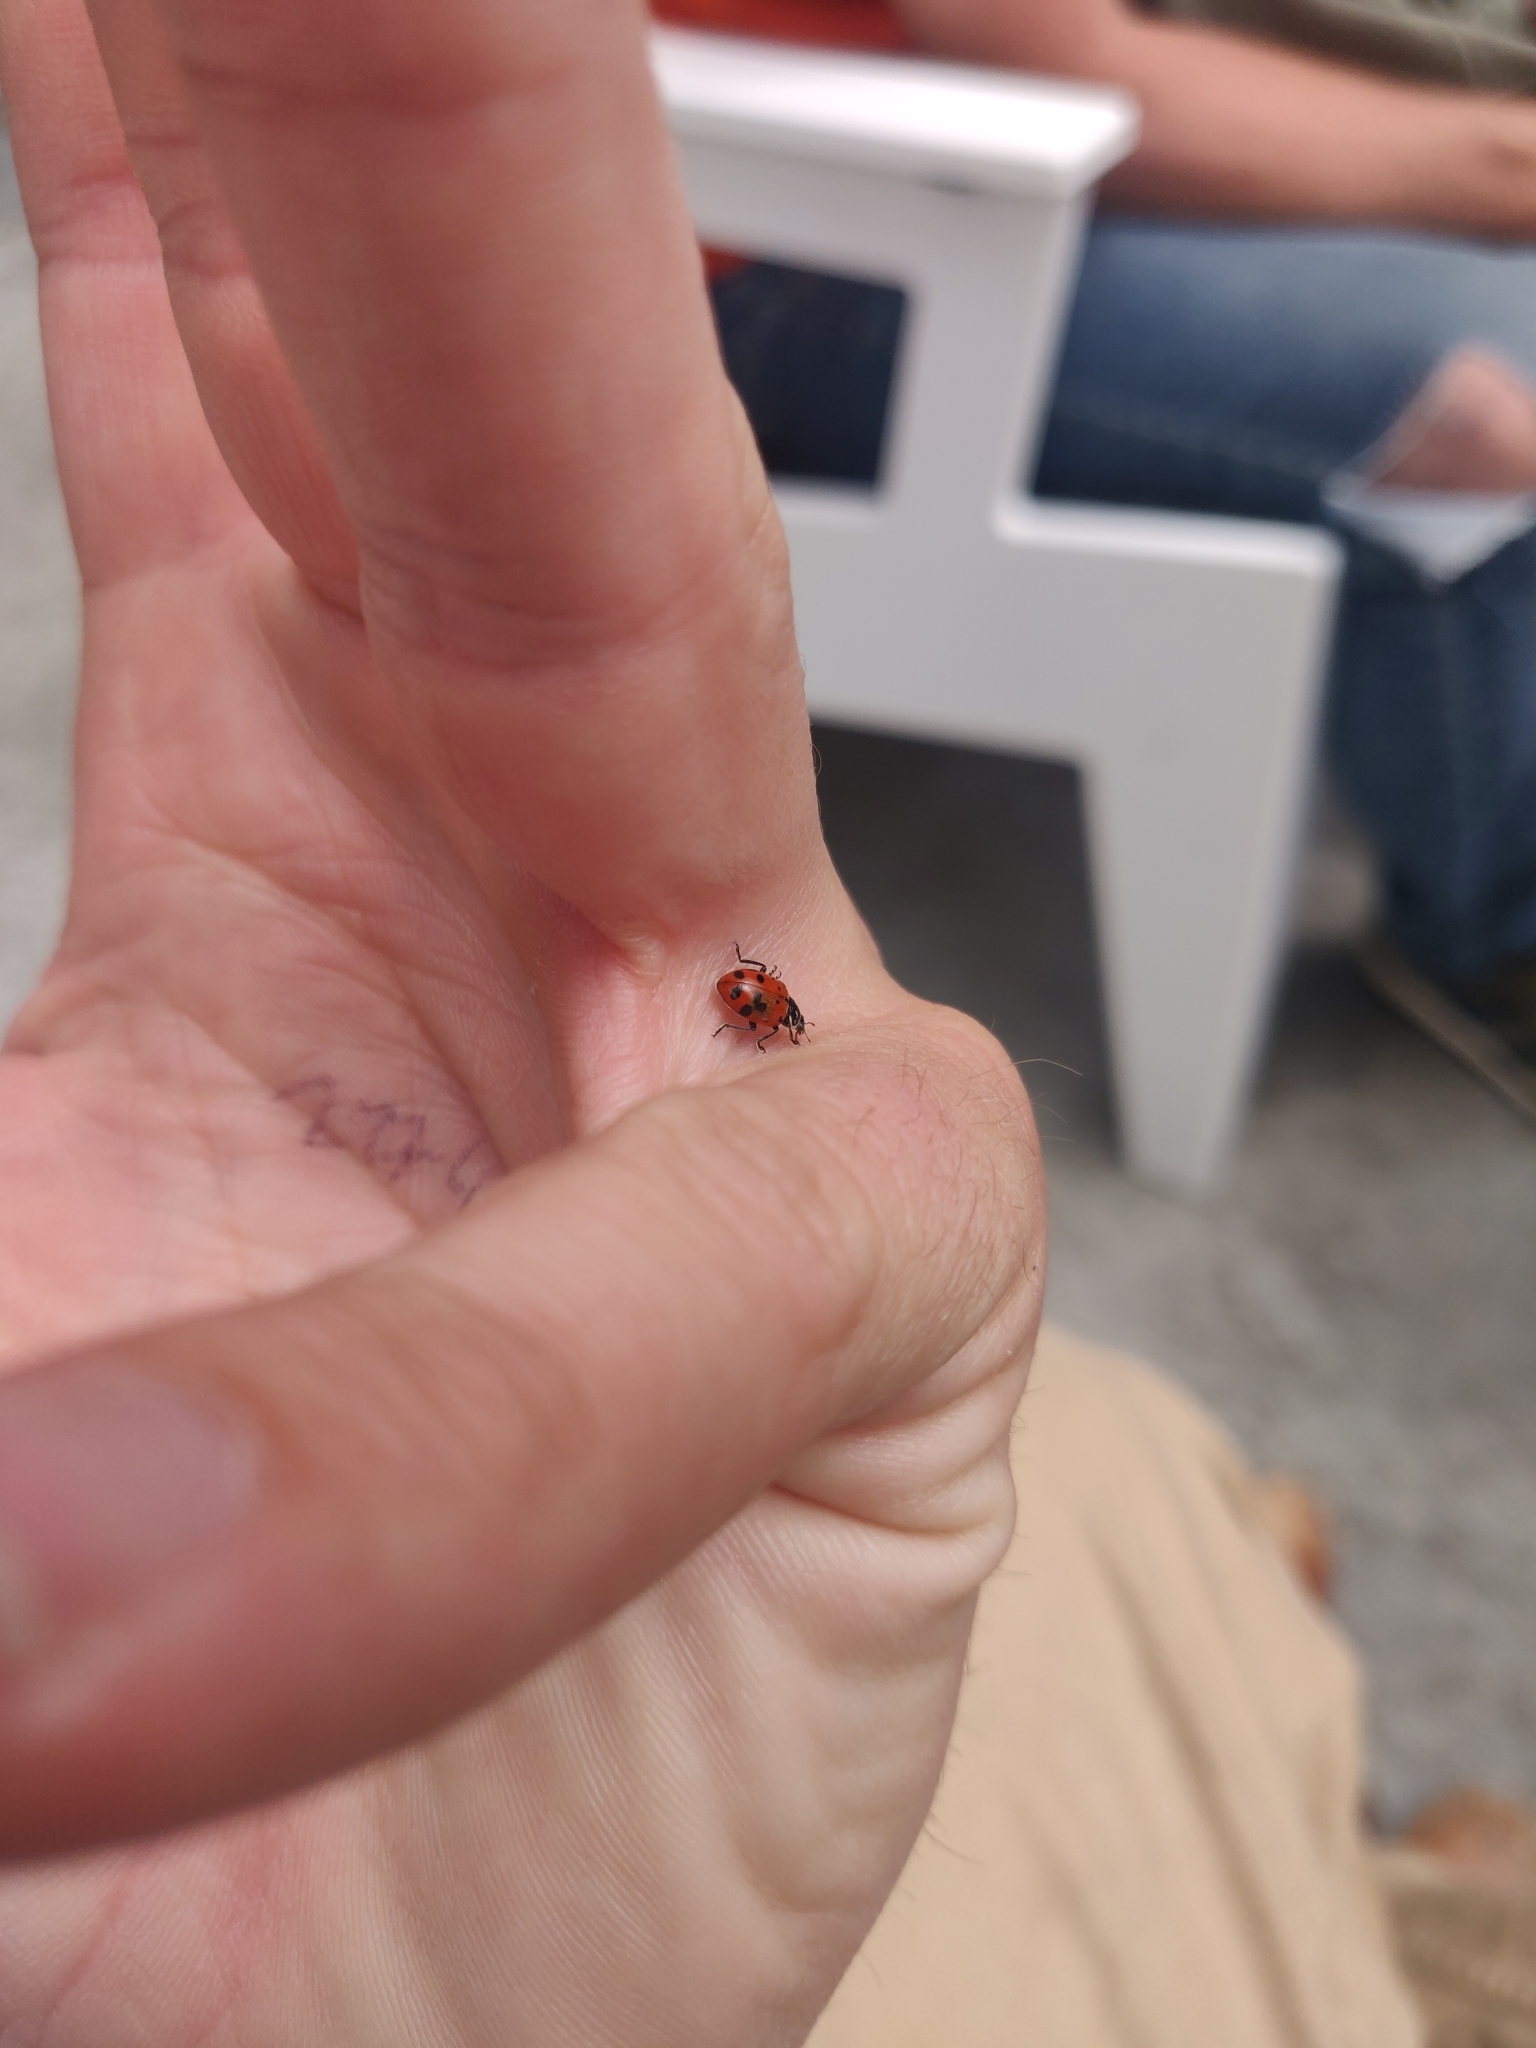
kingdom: Animalia
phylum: Arthropoda
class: Insecta
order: Coleoptera
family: Coccinellidae
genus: Hippodamia
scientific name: Hippodamia convergens
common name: Convergent lady beetle
